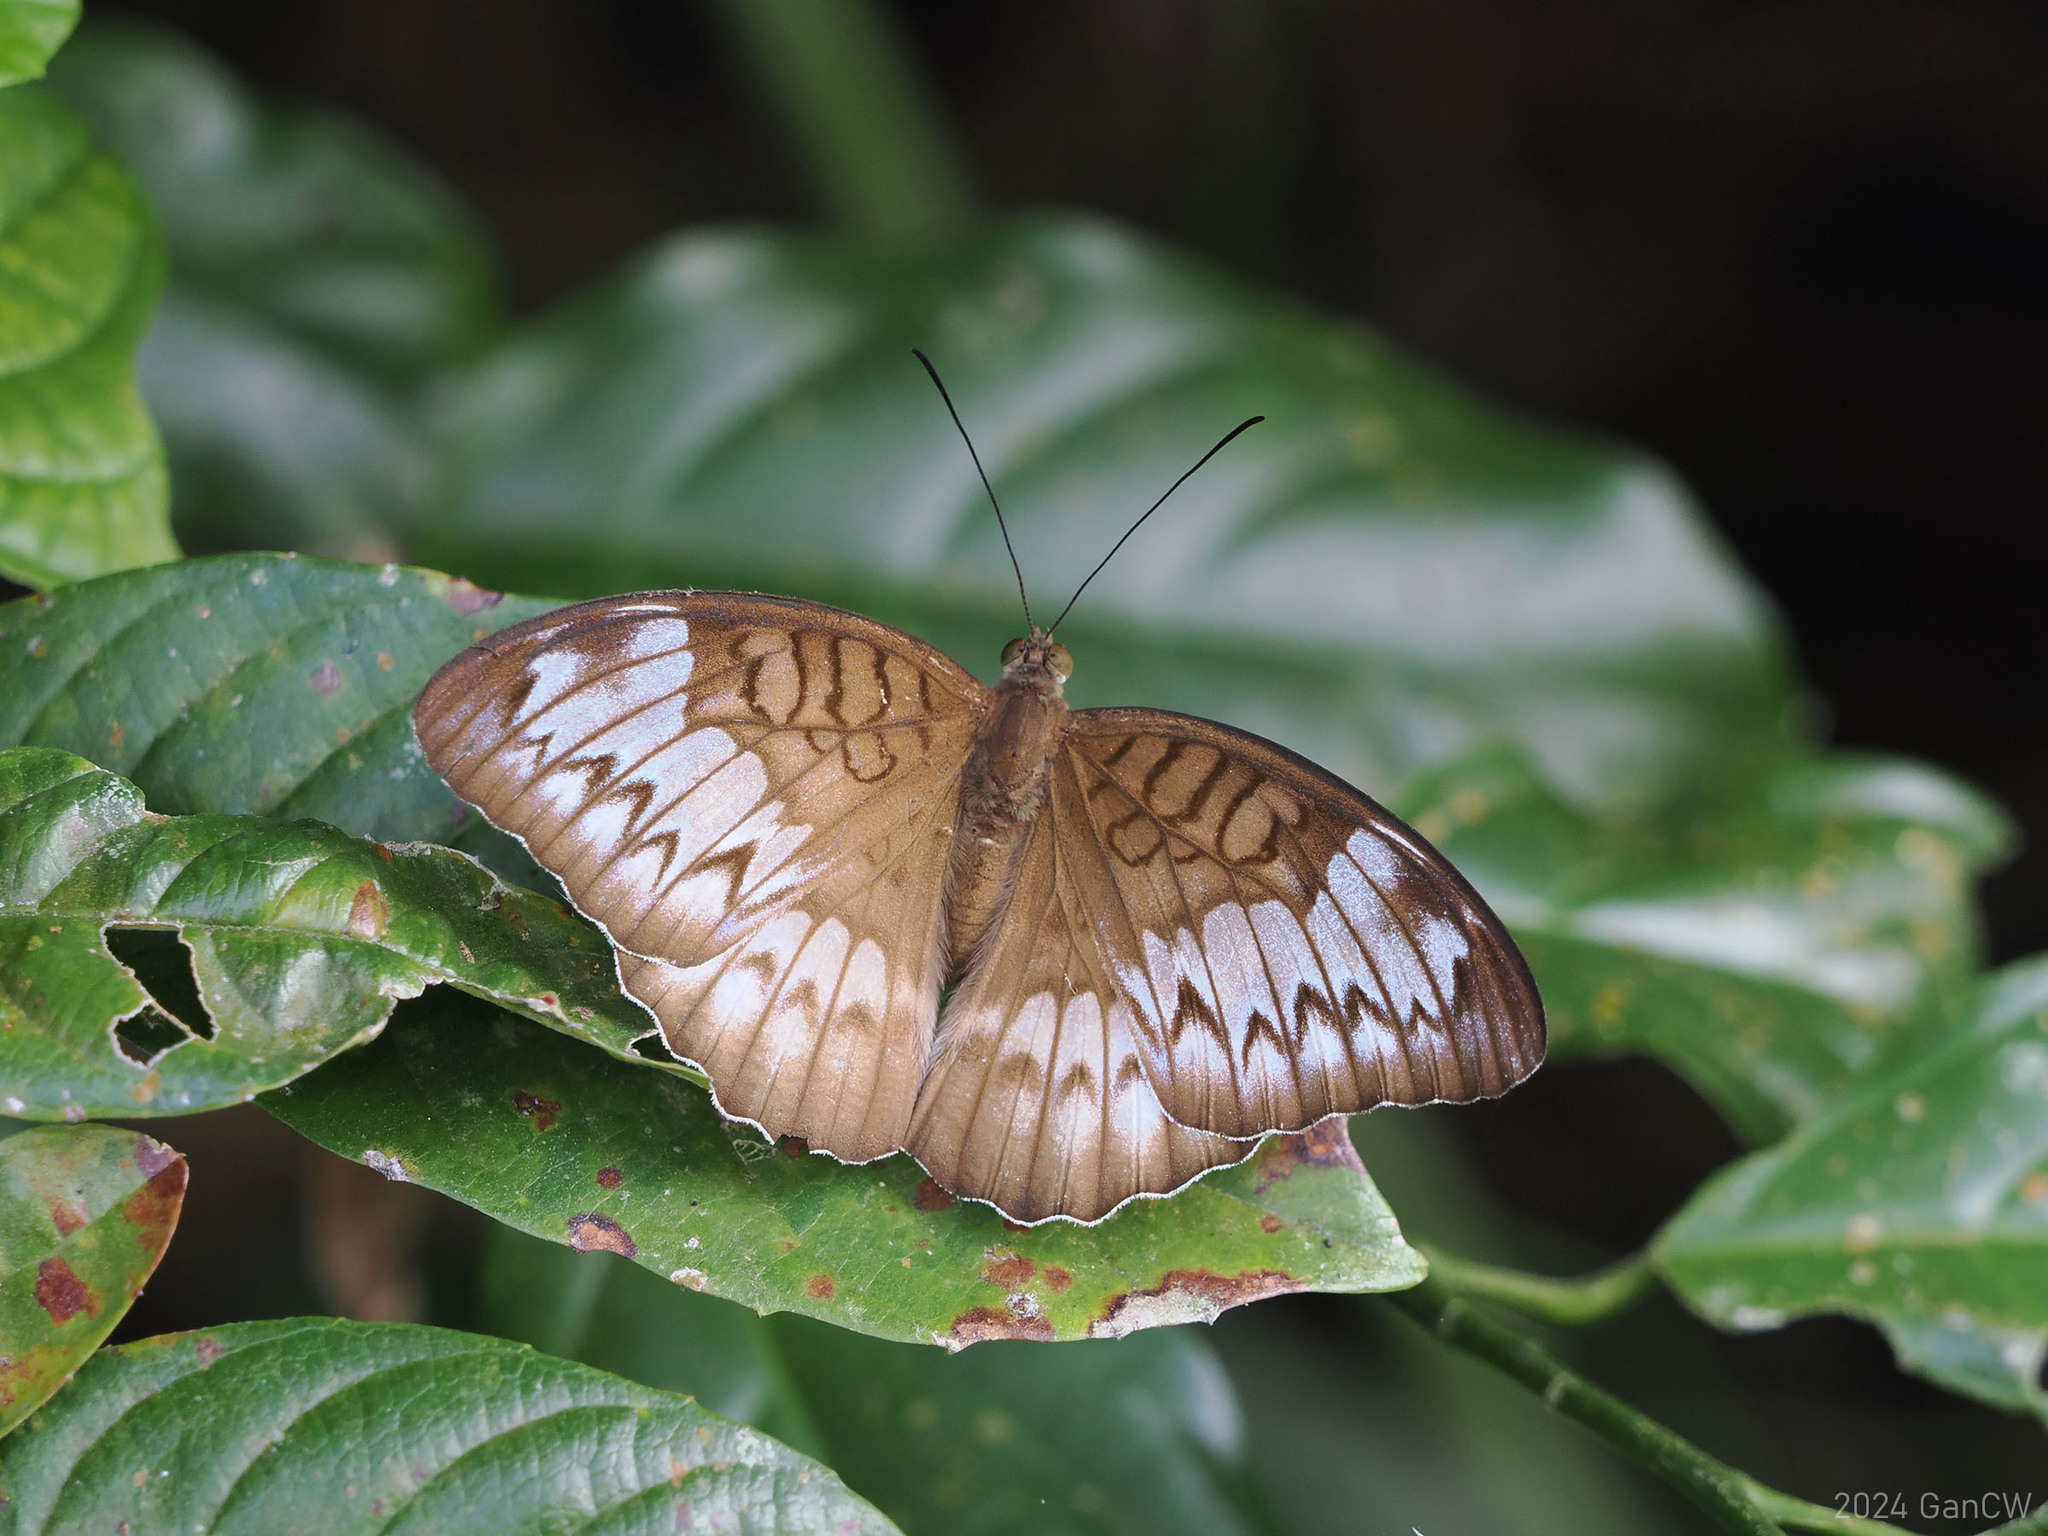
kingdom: Animalia
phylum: Arthropoda
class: Insecta
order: Lepidoptera
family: Nymphalidae
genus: Tanaecia
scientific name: Tanaecia iapis
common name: Horsfield's baron
